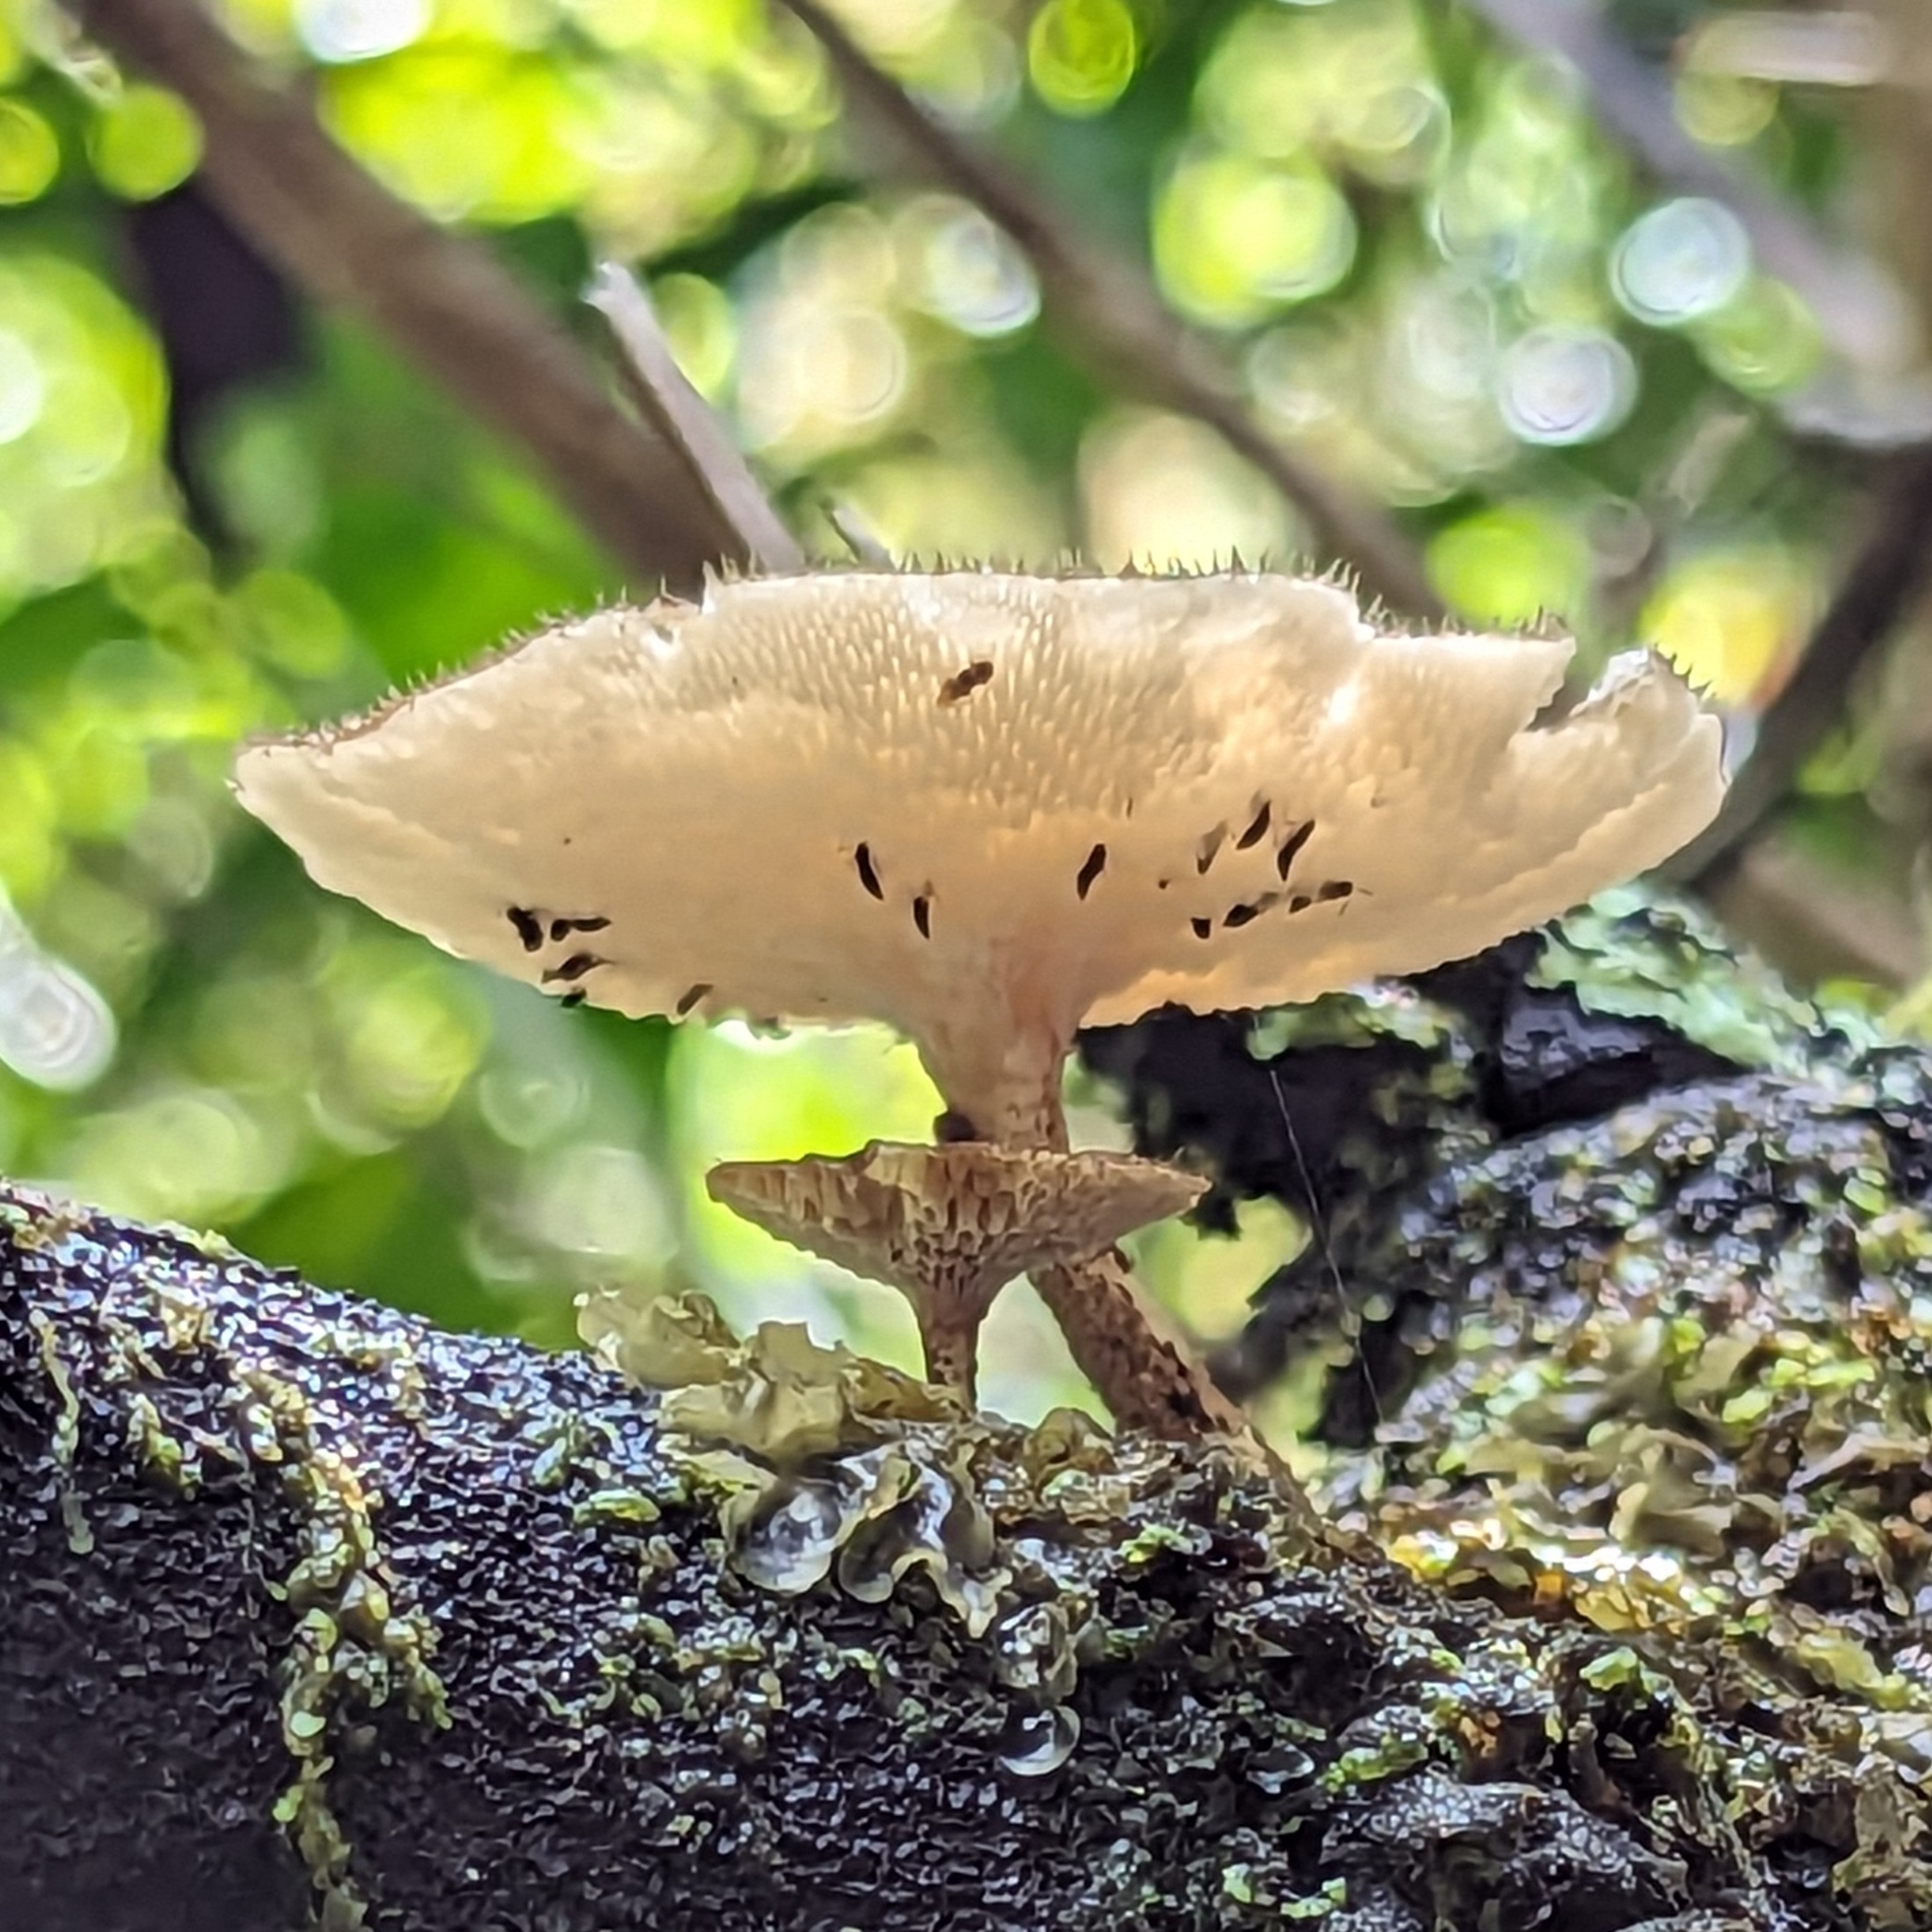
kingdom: Fungi
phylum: Basidiomycota
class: Agaricomycetes
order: Polyporales
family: Polyporaceae
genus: Lentinus
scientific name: Lentinus arcularius
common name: Spring polypore
